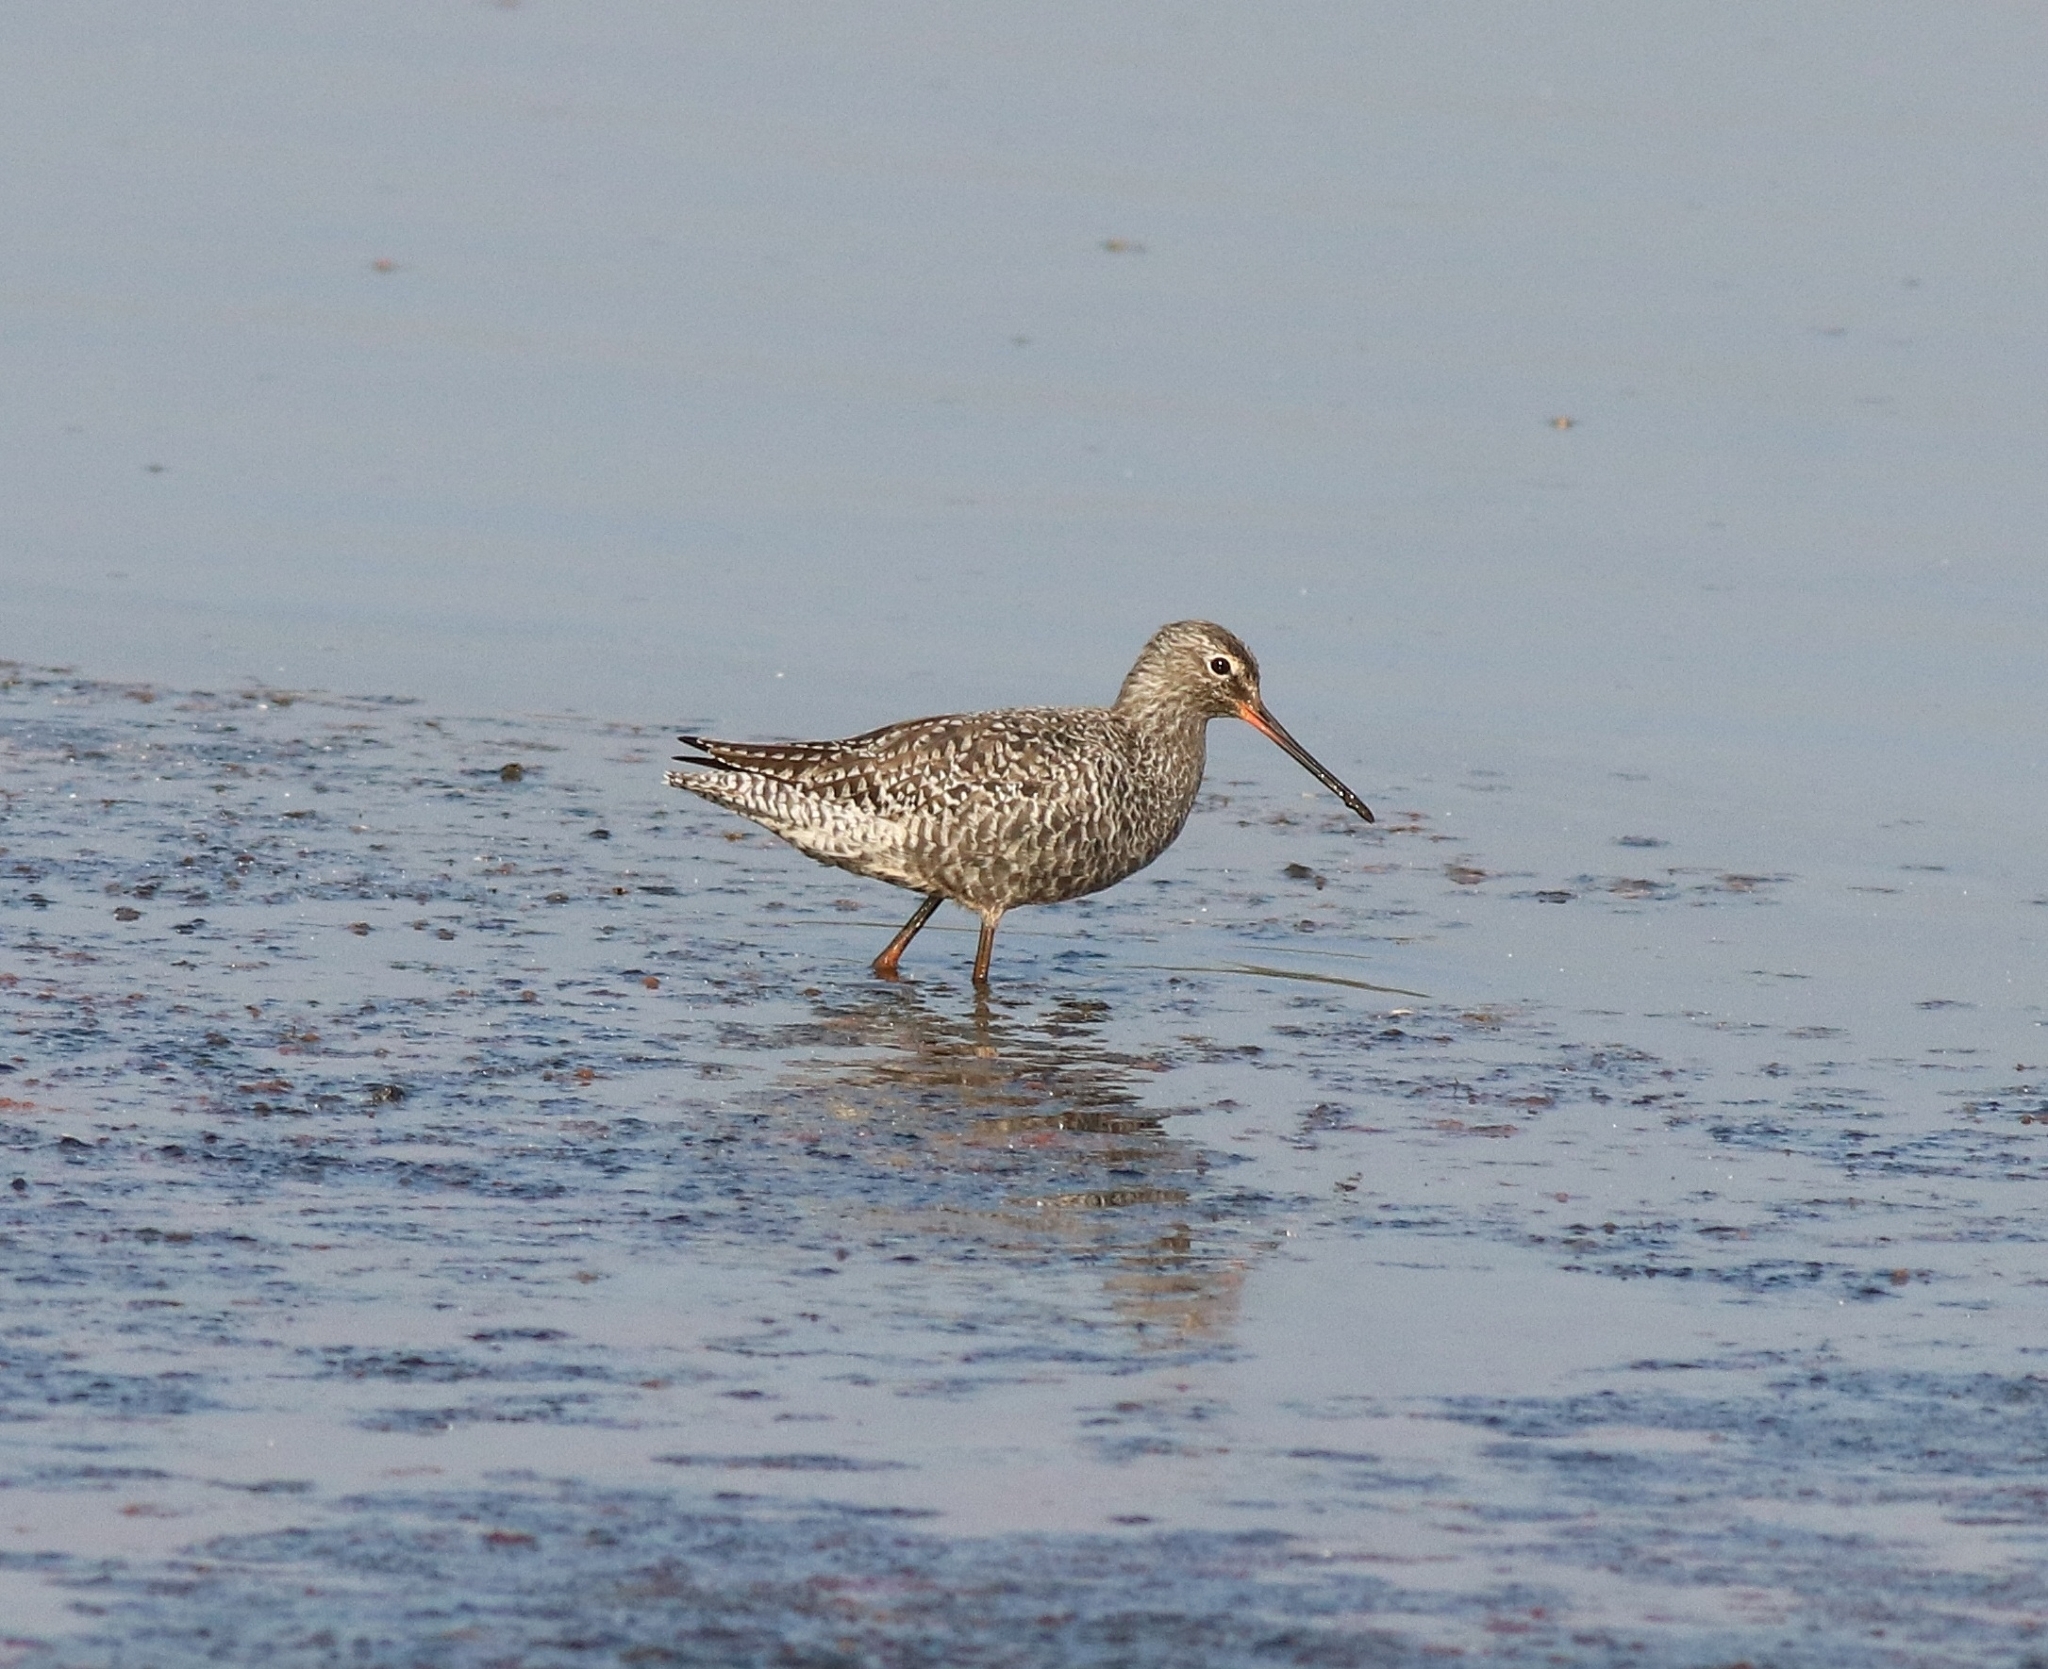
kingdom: Animalia
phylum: Chordata
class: Aves
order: Charadriiformes
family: Scolopacidae
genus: Tringa
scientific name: Tringa erythropus
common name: Spotted redshank
